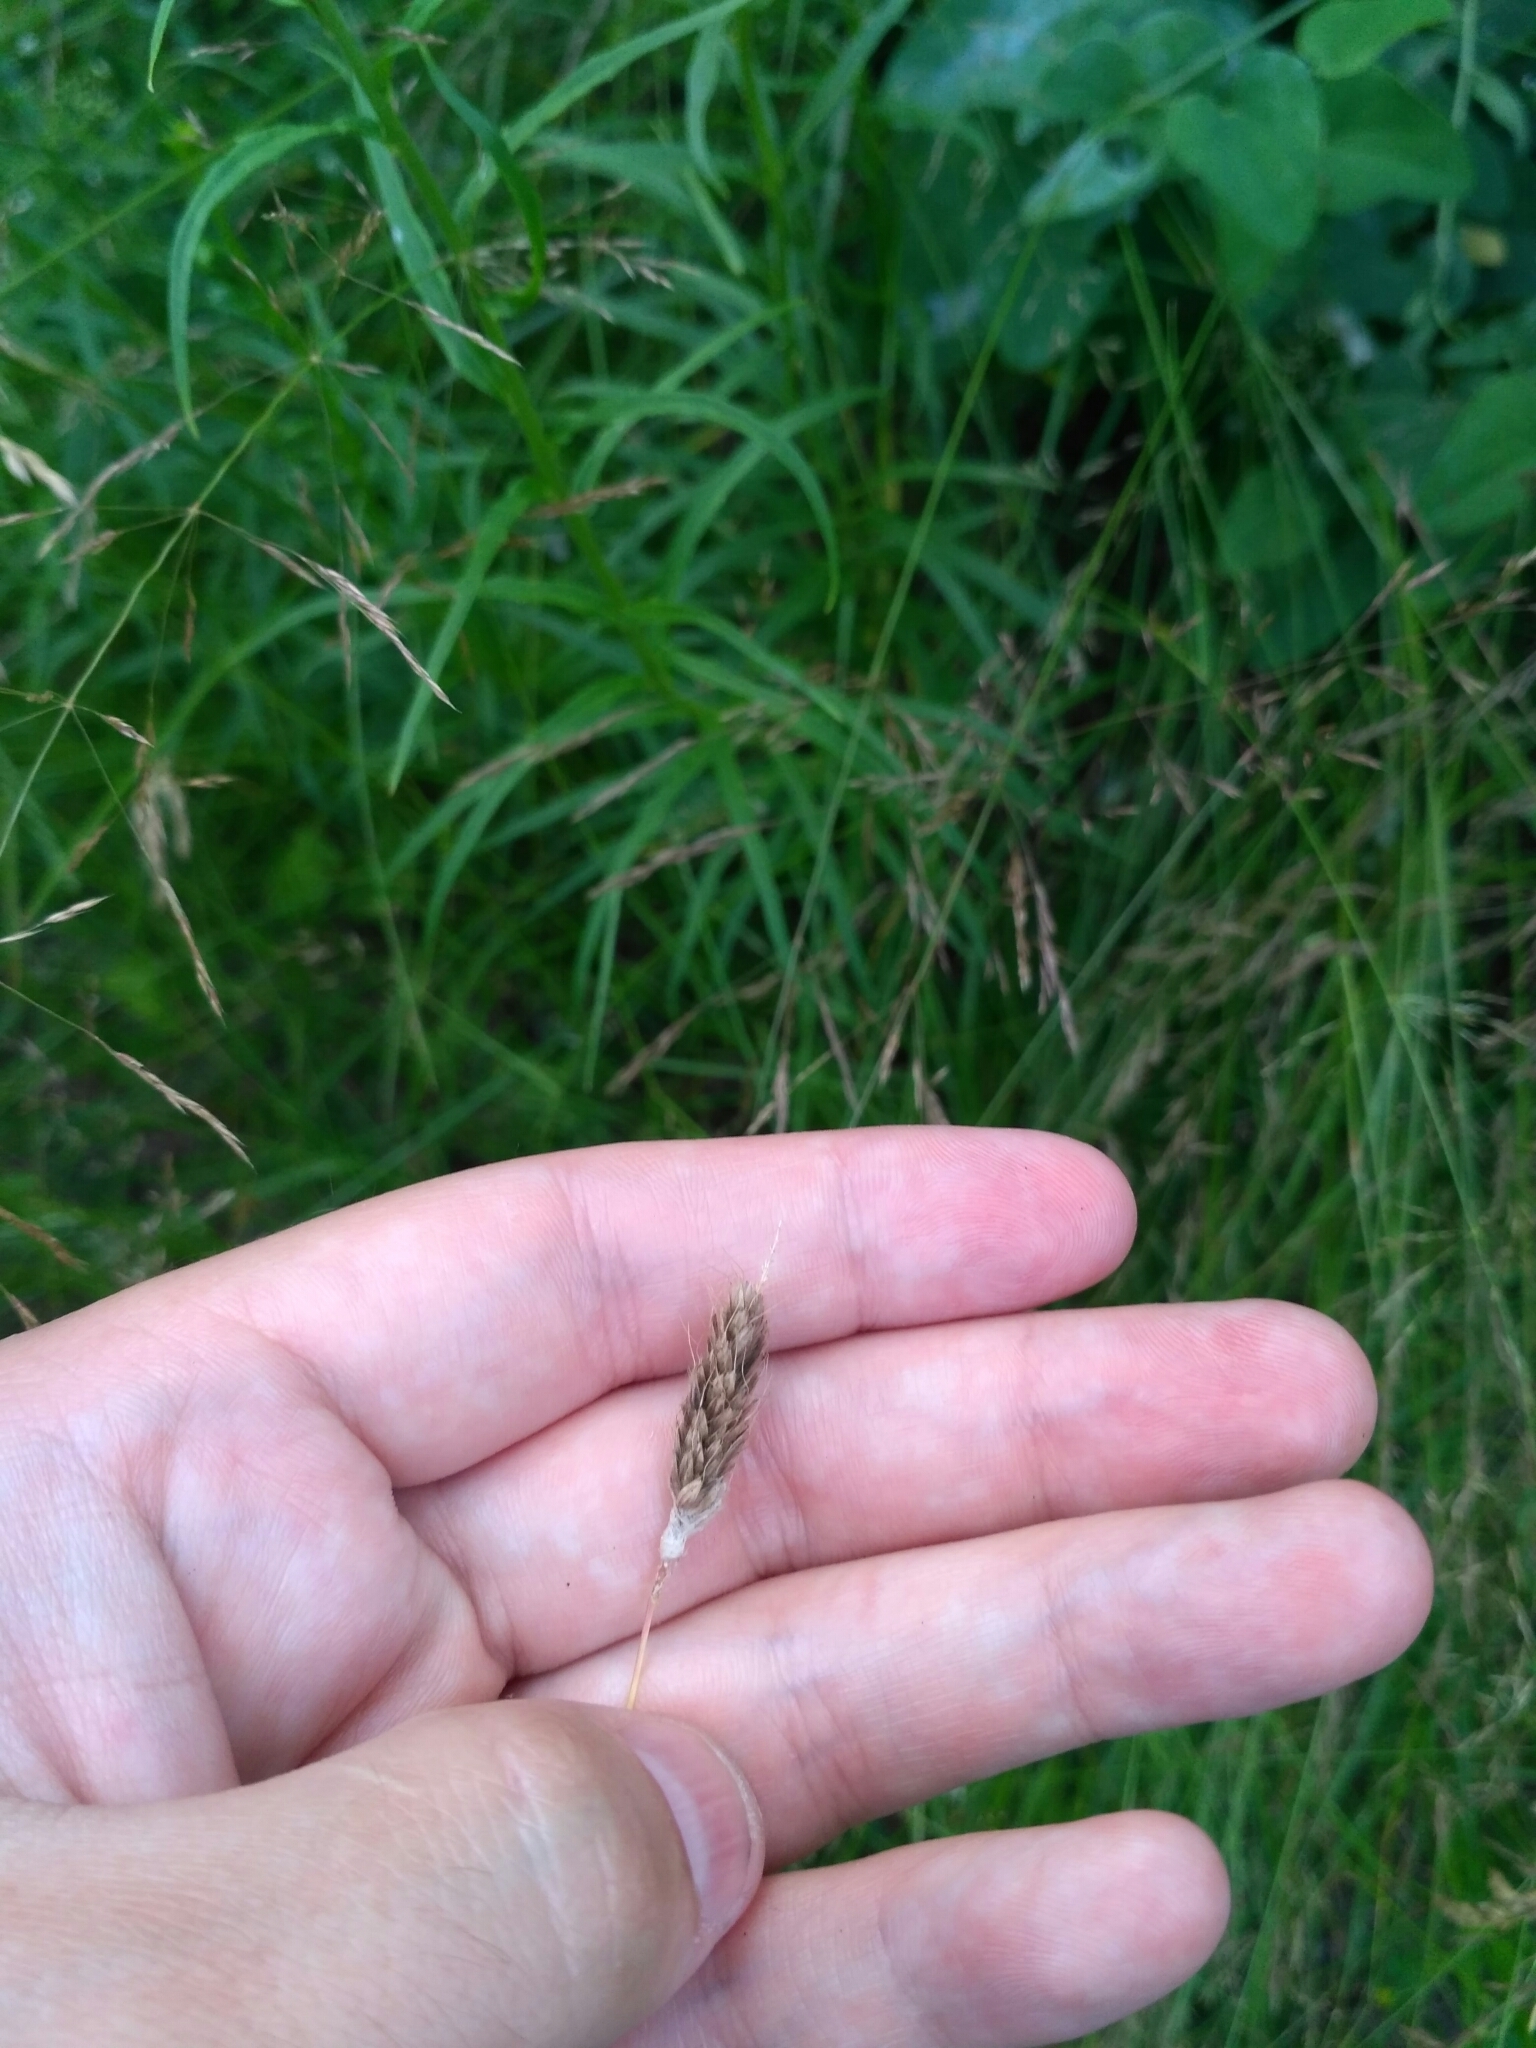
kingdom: Plantae
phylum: Tracheophyta
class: Liliopsida
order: Poales
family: Poaceae
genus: Alopecurus
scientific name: Alopecurus pratensis
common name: Meadow foxtail
